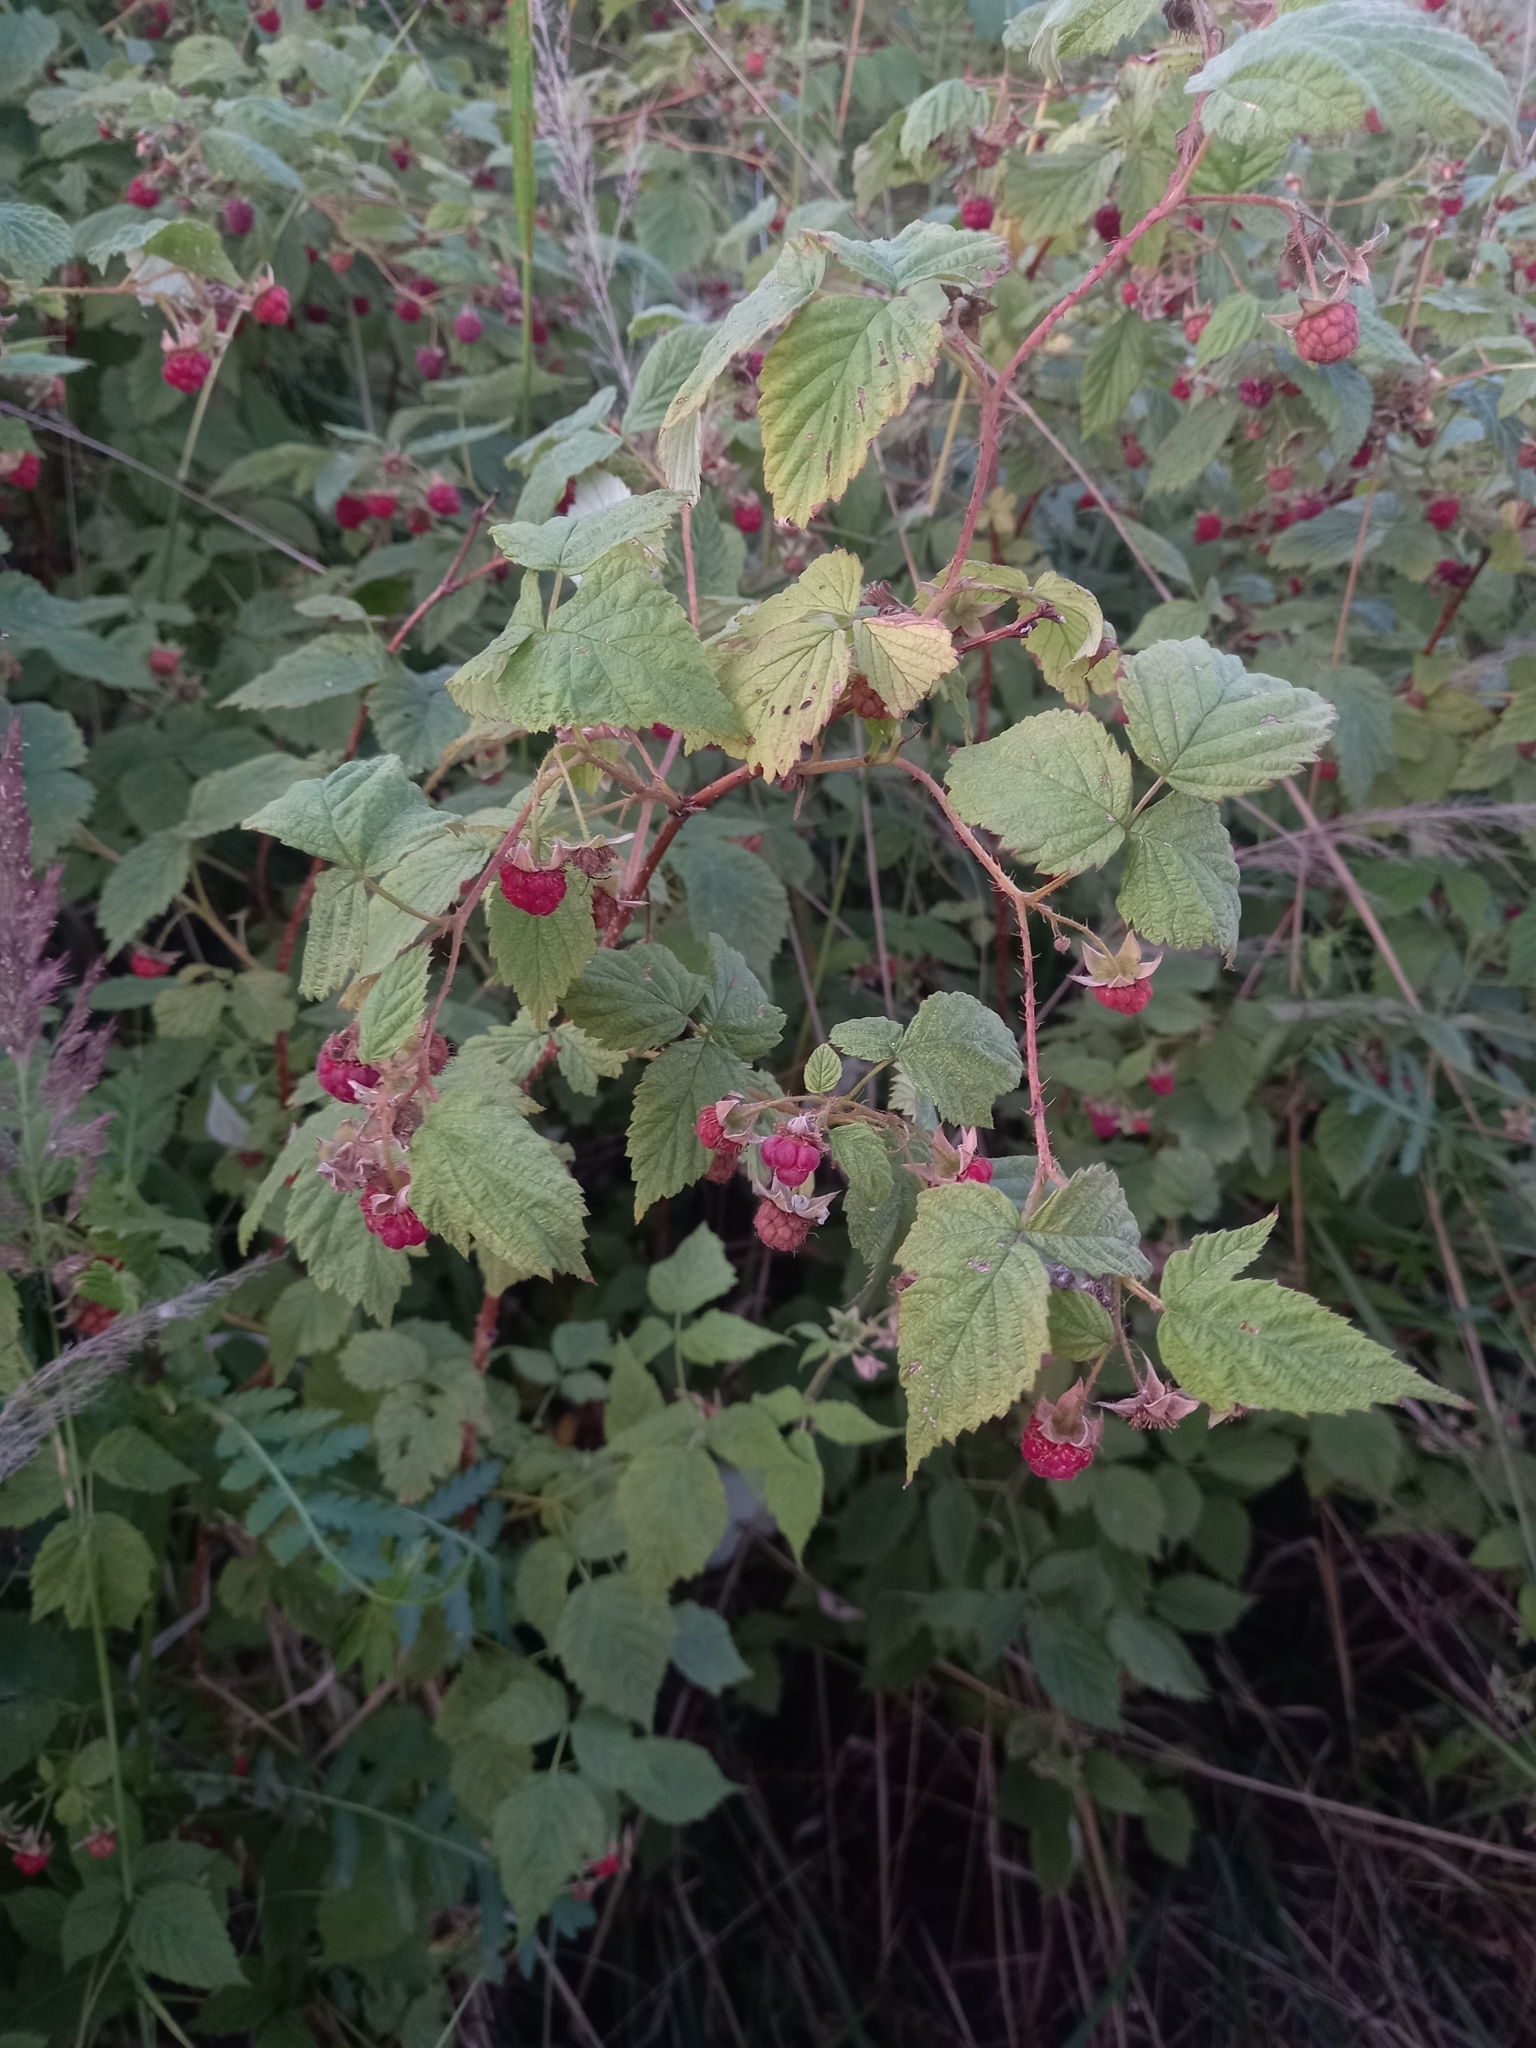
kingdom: Plantae
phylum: Tracheophyta
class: Magnoliopsida
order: Rosales
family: Rosaceae
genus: Rubus
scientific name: Rubus idaeus
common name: Raspberry
